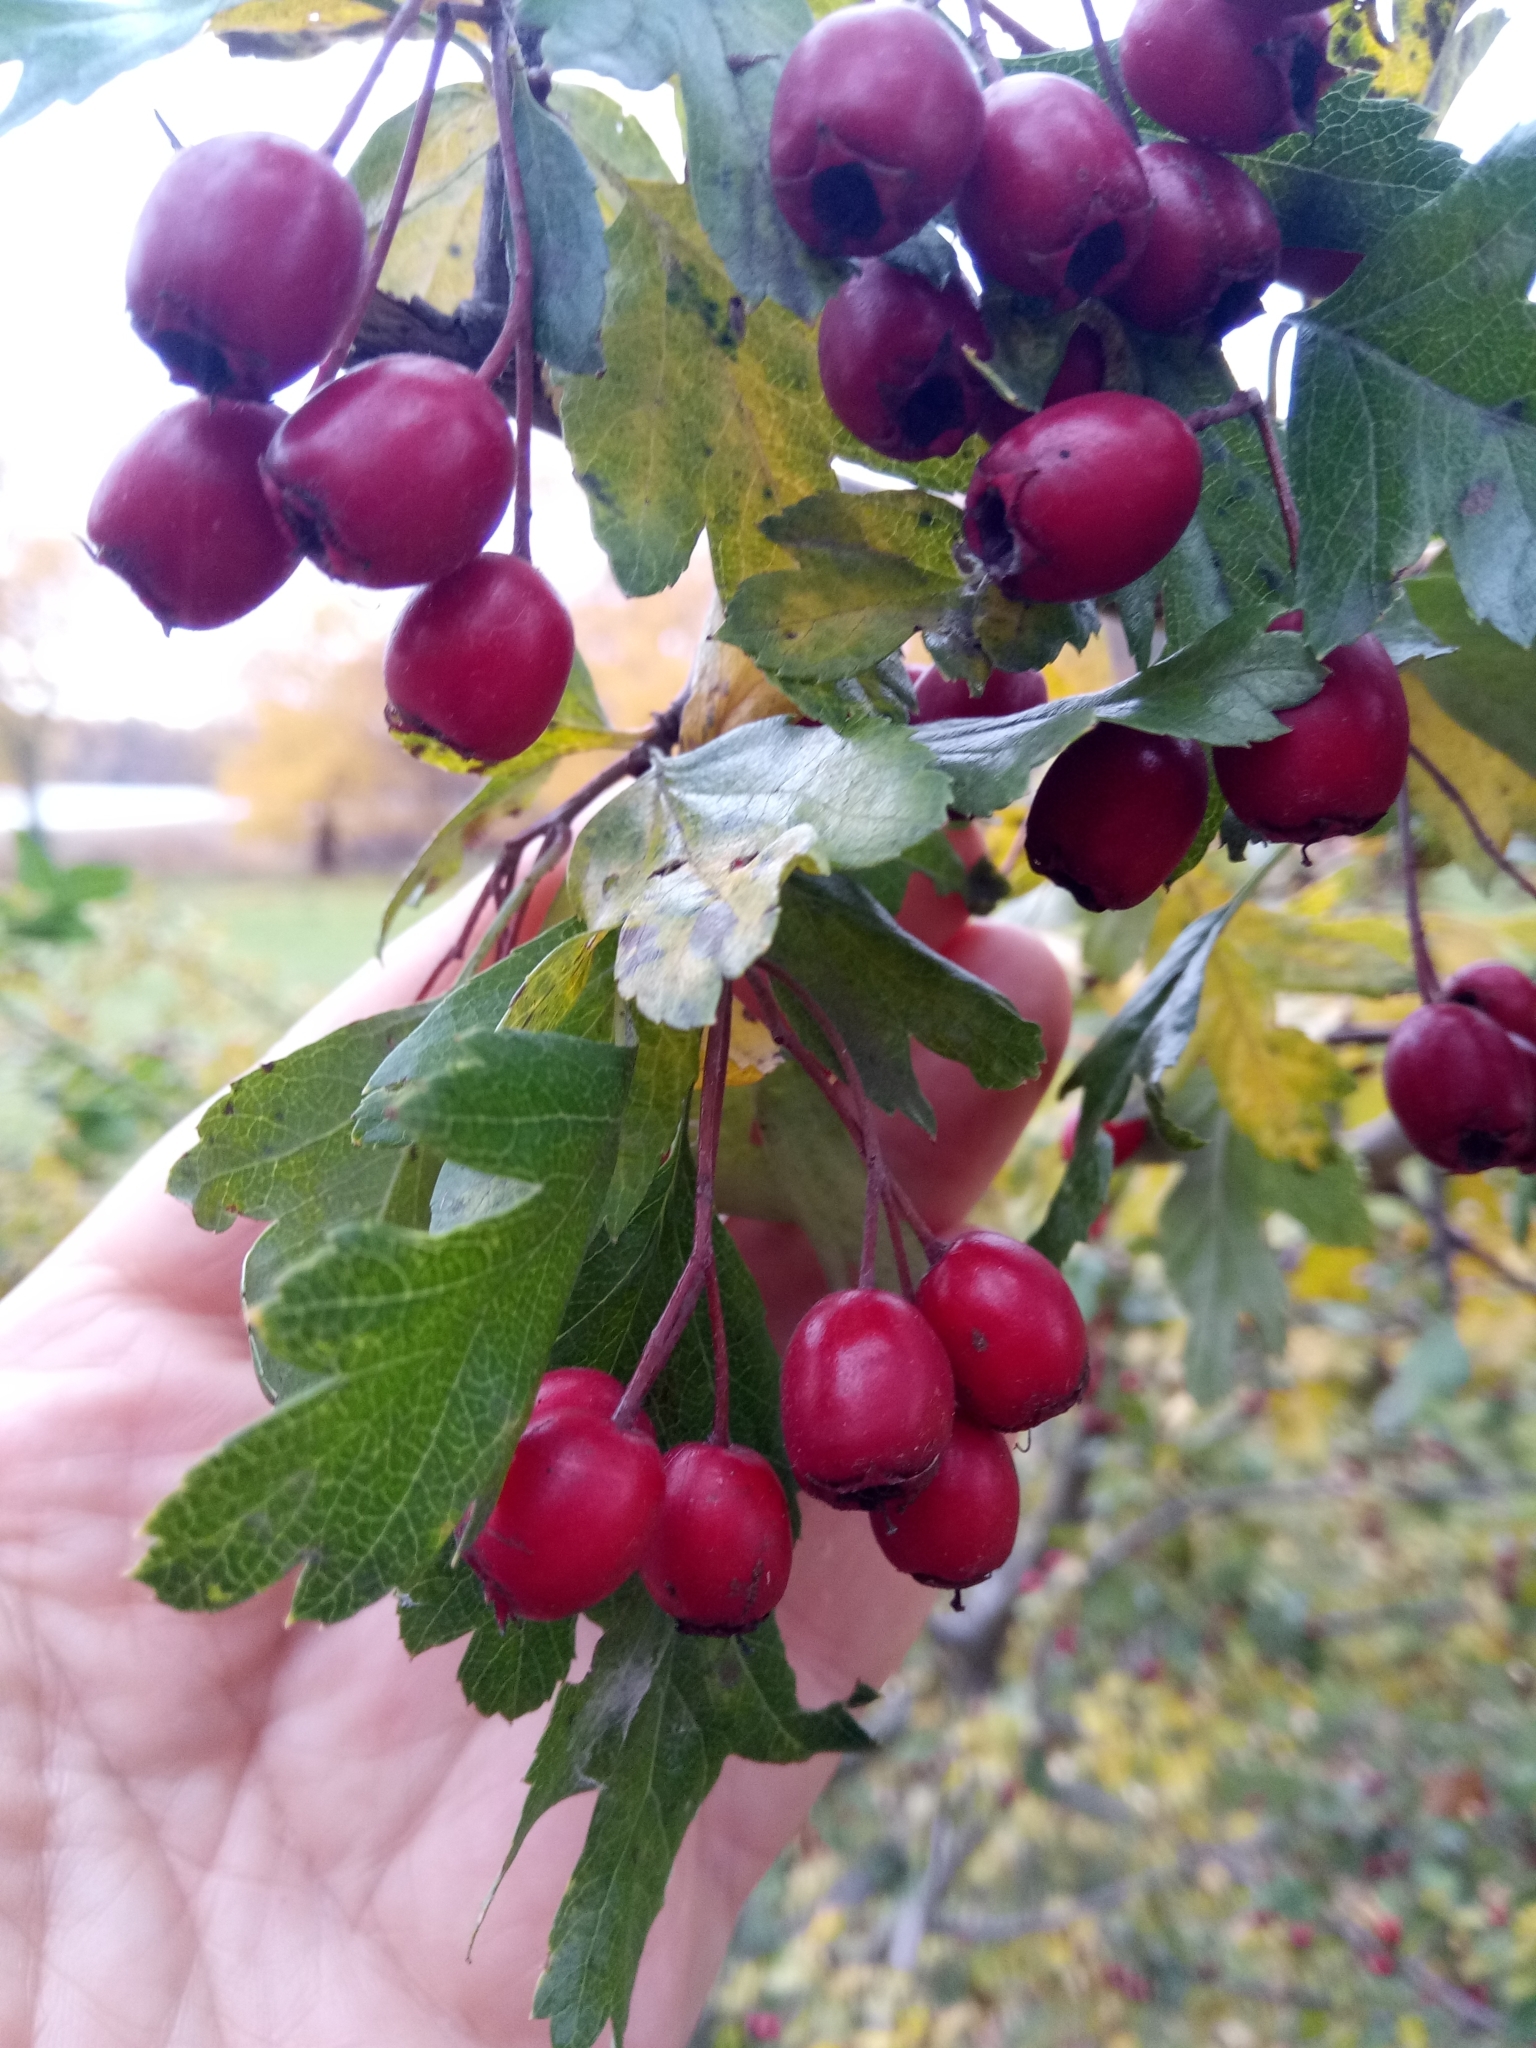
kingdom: Plantae
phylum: Tracheophyta
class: Magnoliopsida
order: Rosales
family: Rosaceae
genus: Crataegus
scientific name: Crataegus monogyna
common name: Hawthorn
